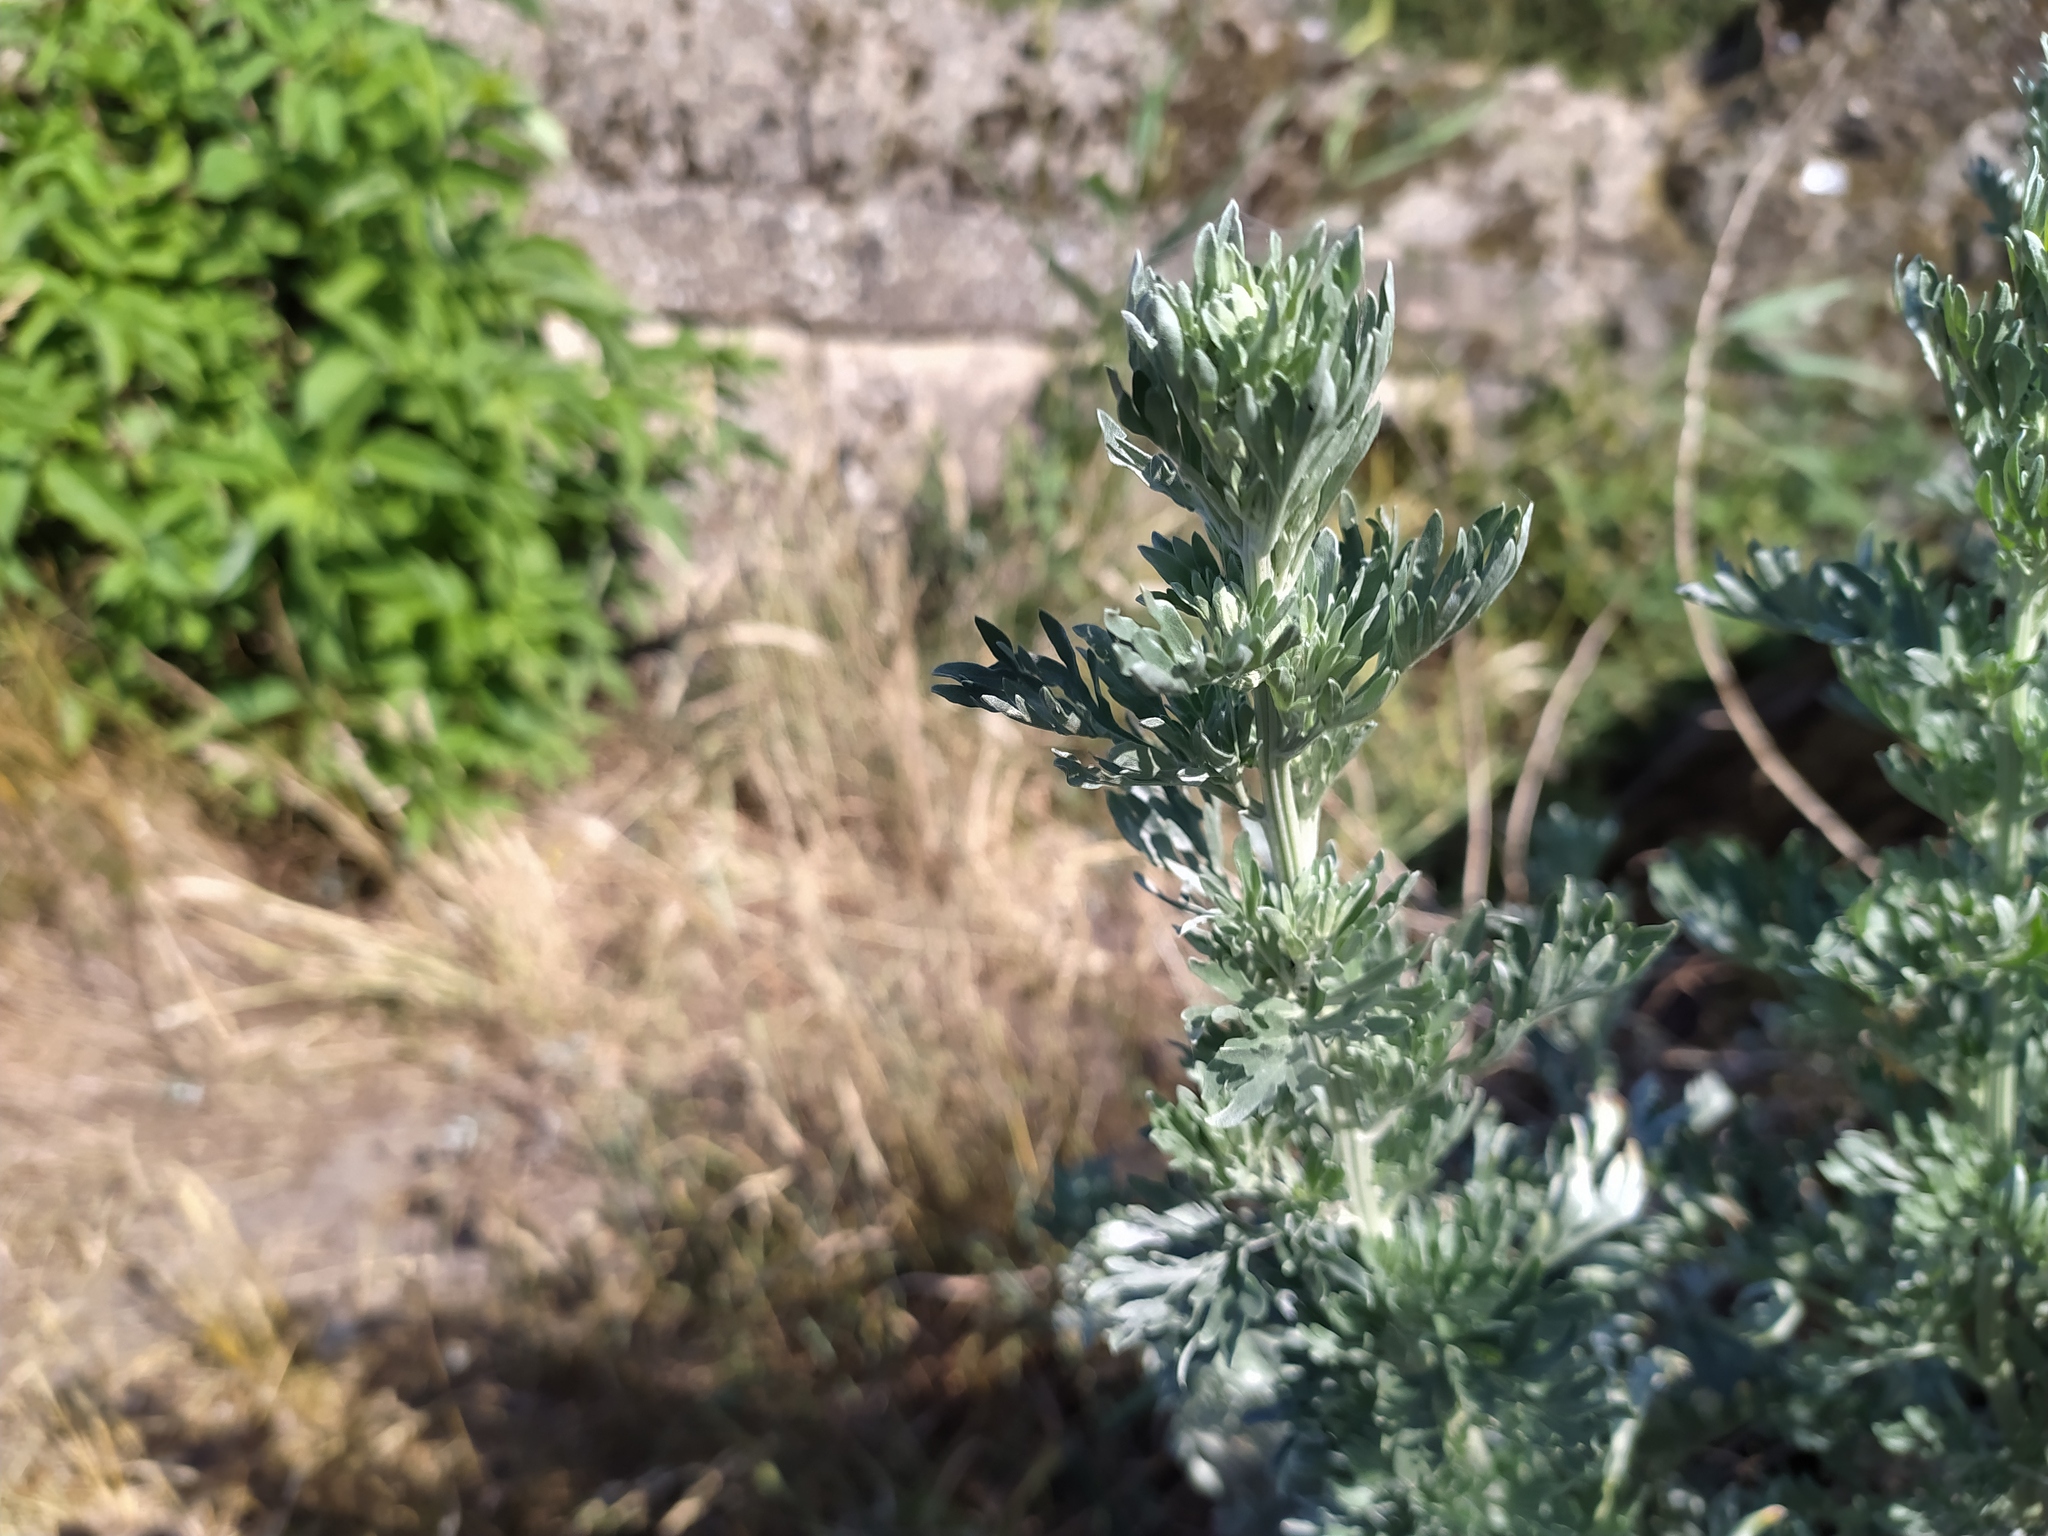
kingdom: Plantae
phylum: Tracheophyta
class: Magnoliopsida
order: Asterales
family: Asteraceae
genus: Artemisia
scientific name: Artemisia absinthium
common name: Wormwood
